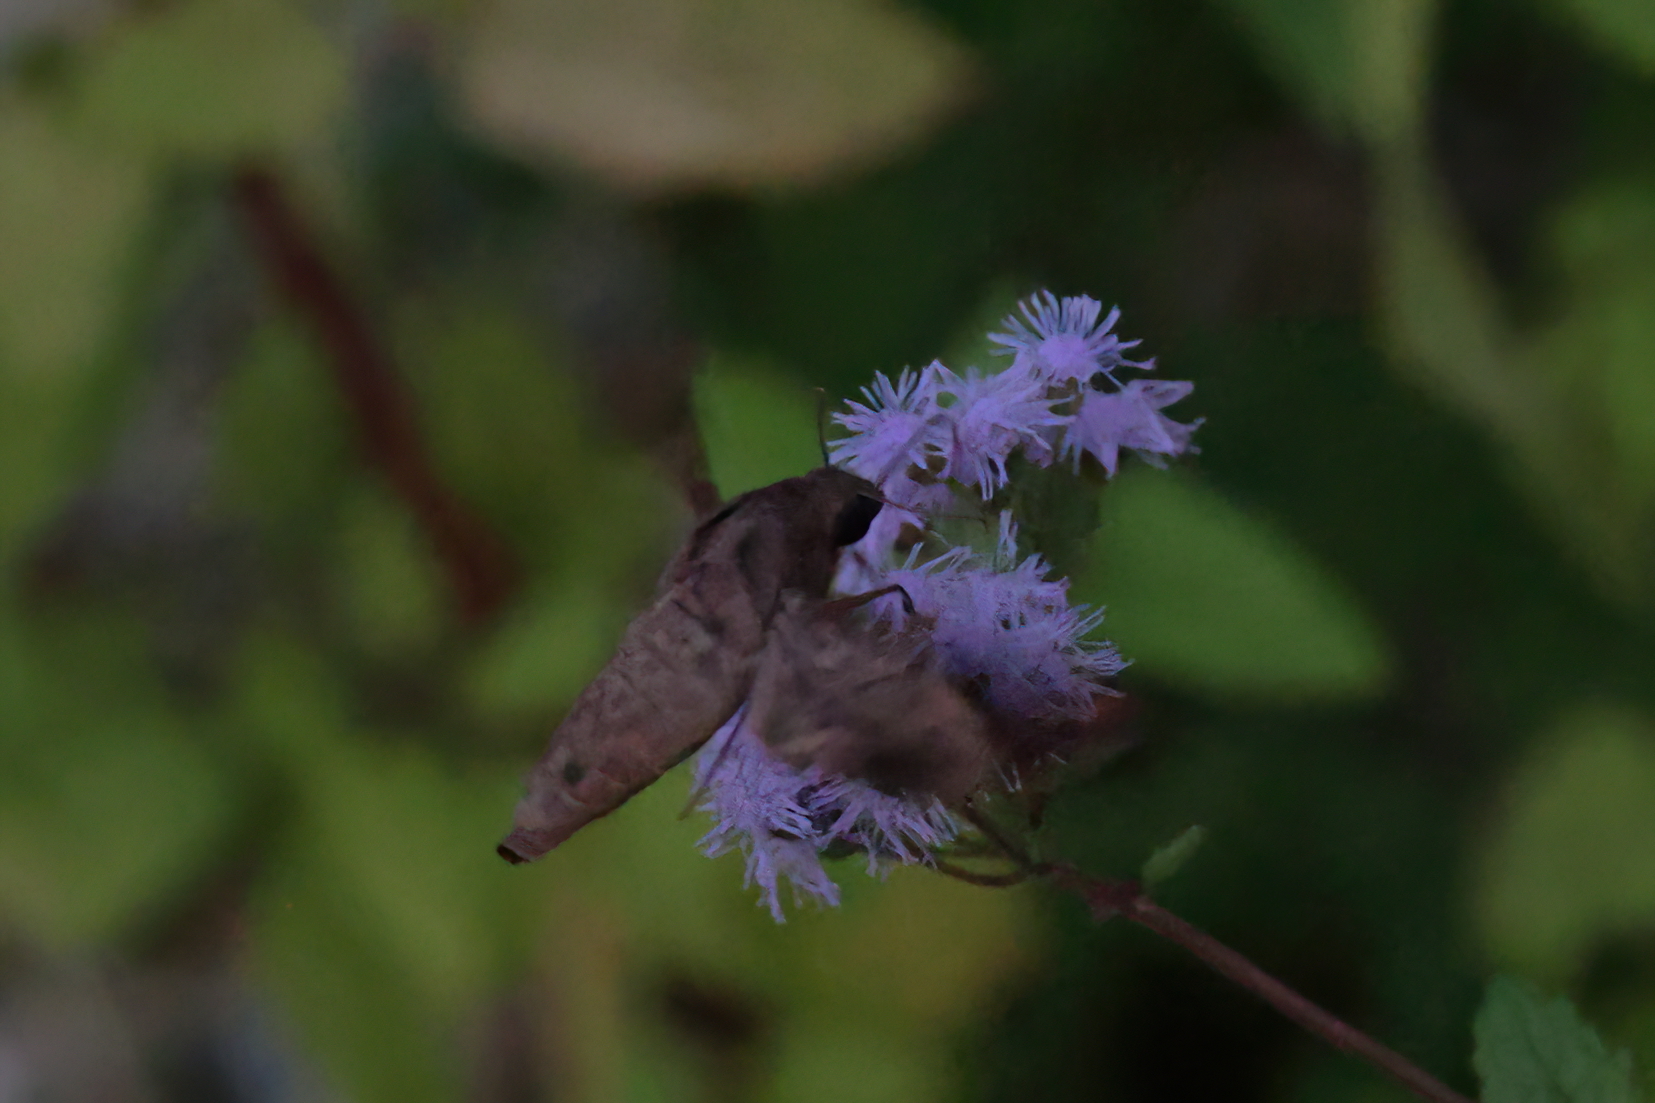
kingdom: Animalia
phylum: Arthropoda
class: Insecta
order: Lepidoptera
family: Sphingidae
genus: Enyo
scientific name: Enyo lugubris
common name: Mournful sphinx
